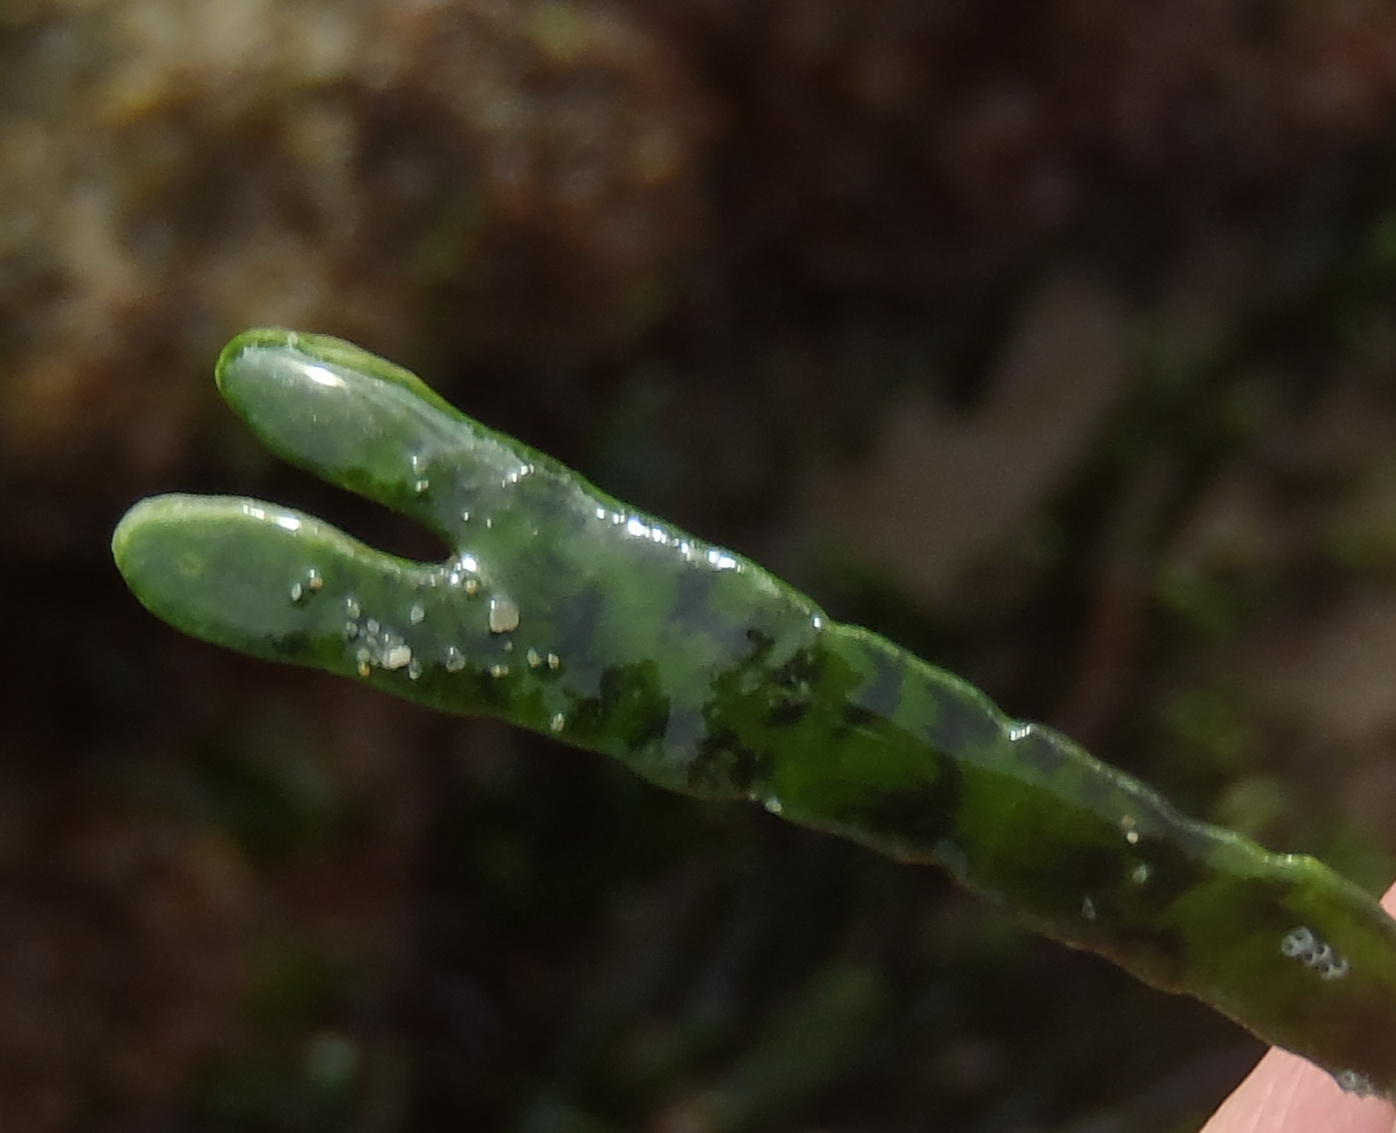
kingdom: Plantae
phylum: Chlorophyta
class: Ulvophyceae
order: Bryopsidales
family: Caulerpaceae
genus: Caulerpa
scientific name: Caulerpa filiformis
